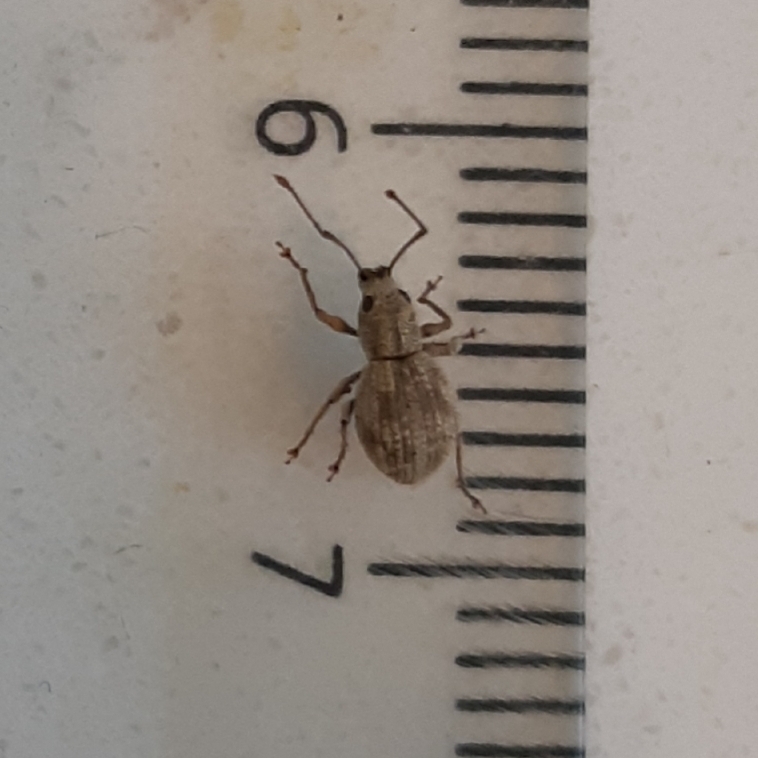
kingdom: Animalia
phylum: Arthropoda
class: Insecta
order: Coleoptera
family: Curculionidae
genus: Calomycterus
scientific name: Calomycterus setarius
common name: Weevil
